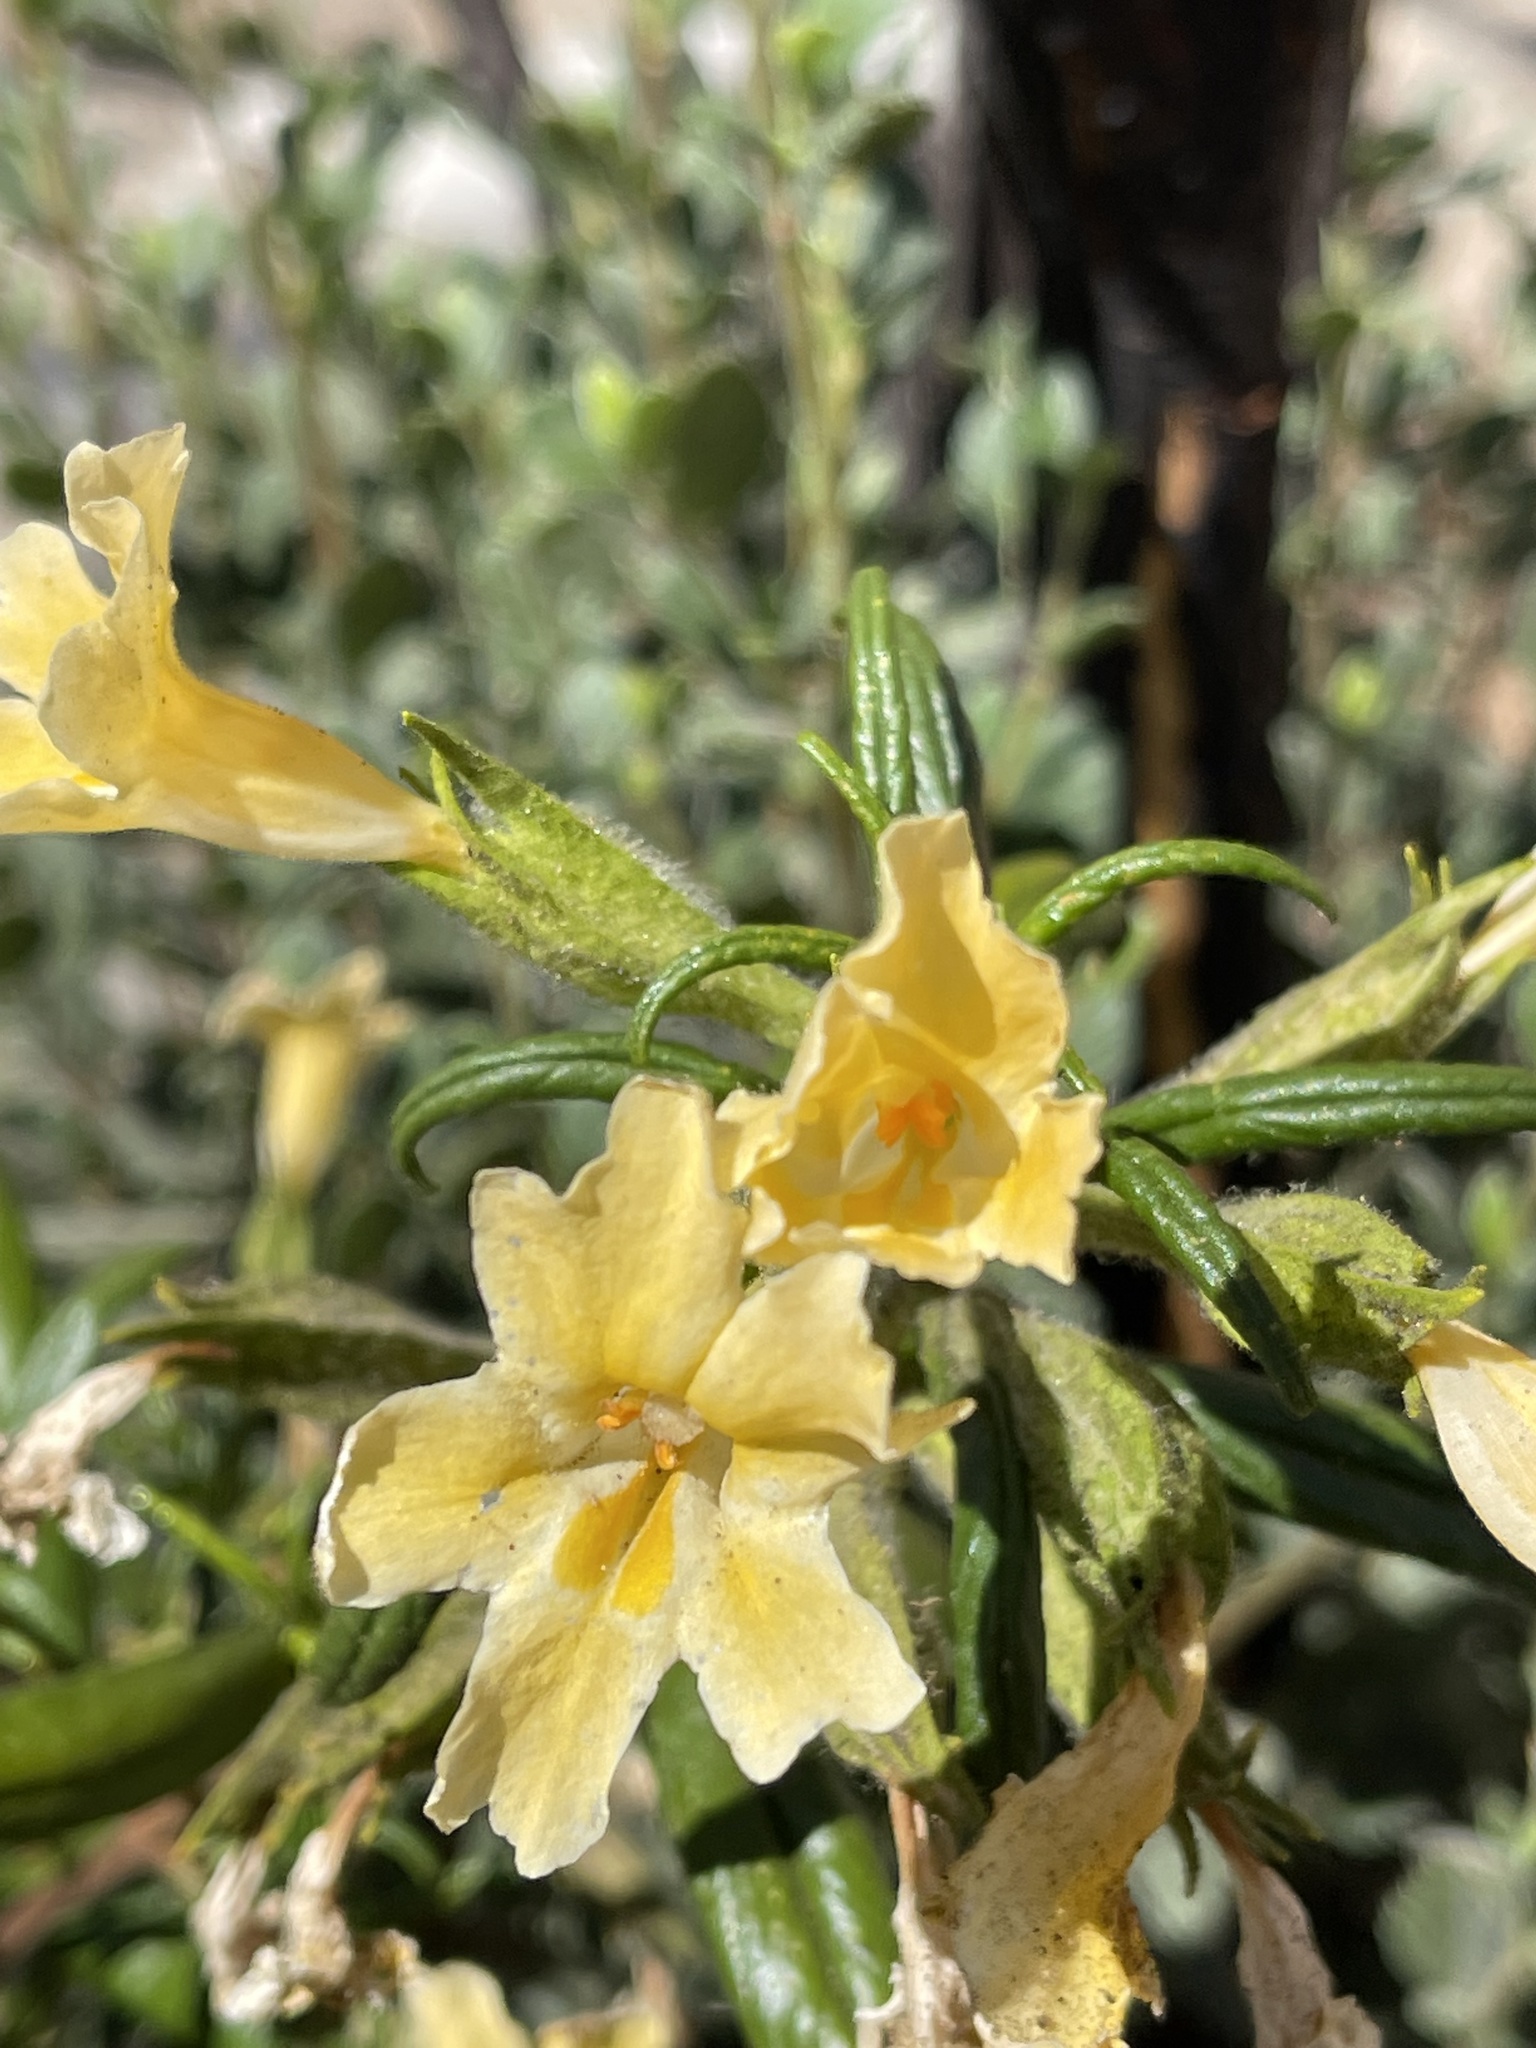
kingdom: Plantae
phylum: Tracheophyta
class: Magnoliopsida
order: Lamiales
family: Phrymaceae
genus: Diplacus
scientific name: Diplacus longiflorus
